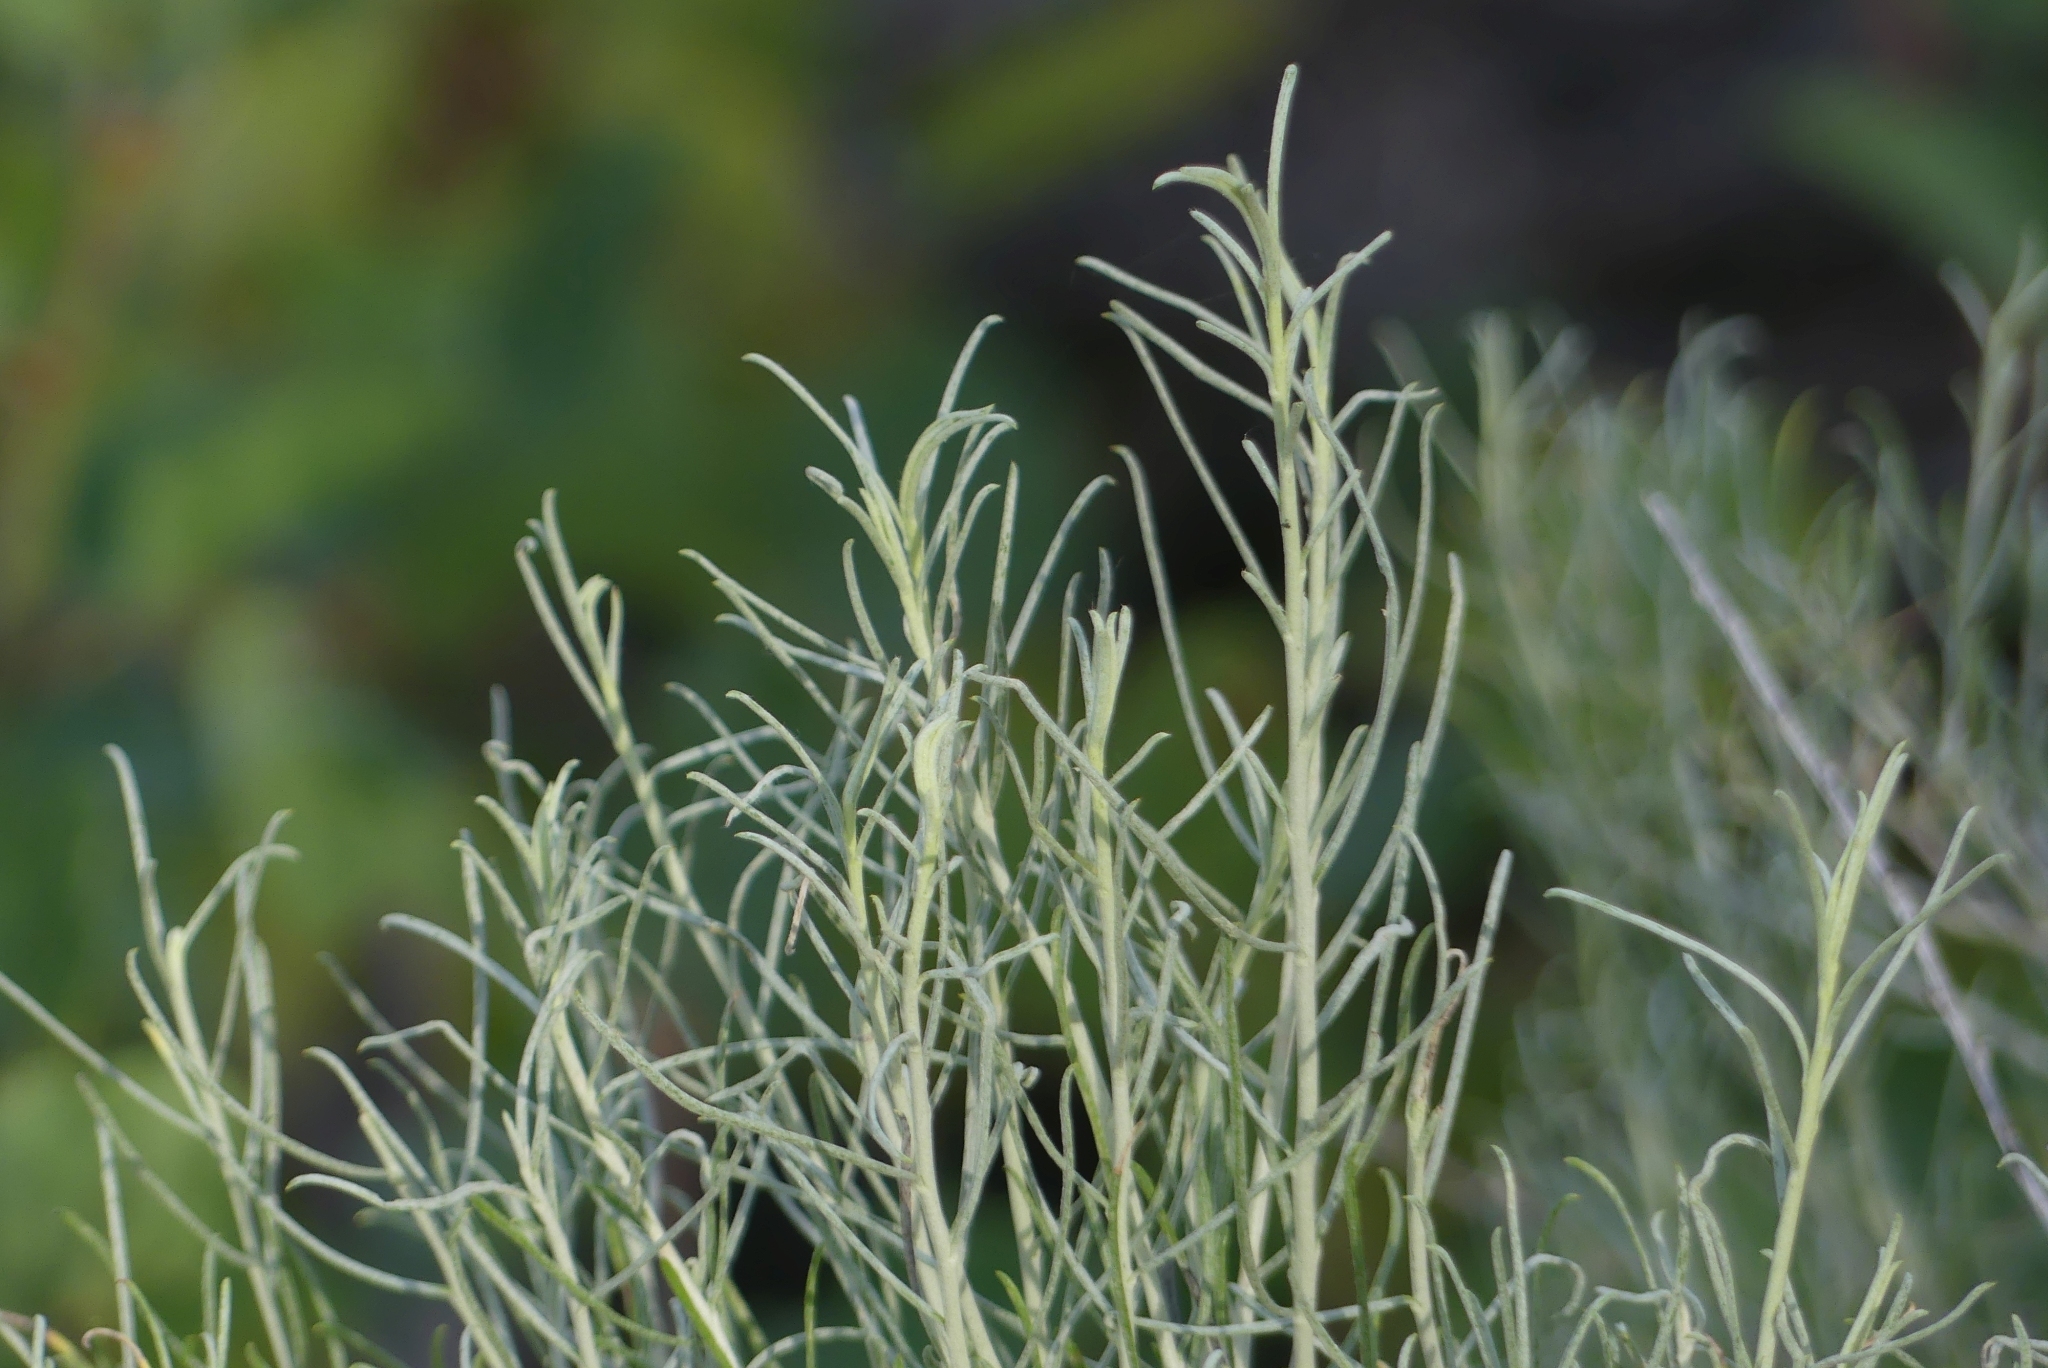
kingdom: Plantae
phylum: Tracheophyta
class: Magnoliopsida
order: Asterales
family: Asteraceae
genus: Ericameria
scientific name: Ericameria nauseosa
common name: Rubber rabbitbrush
